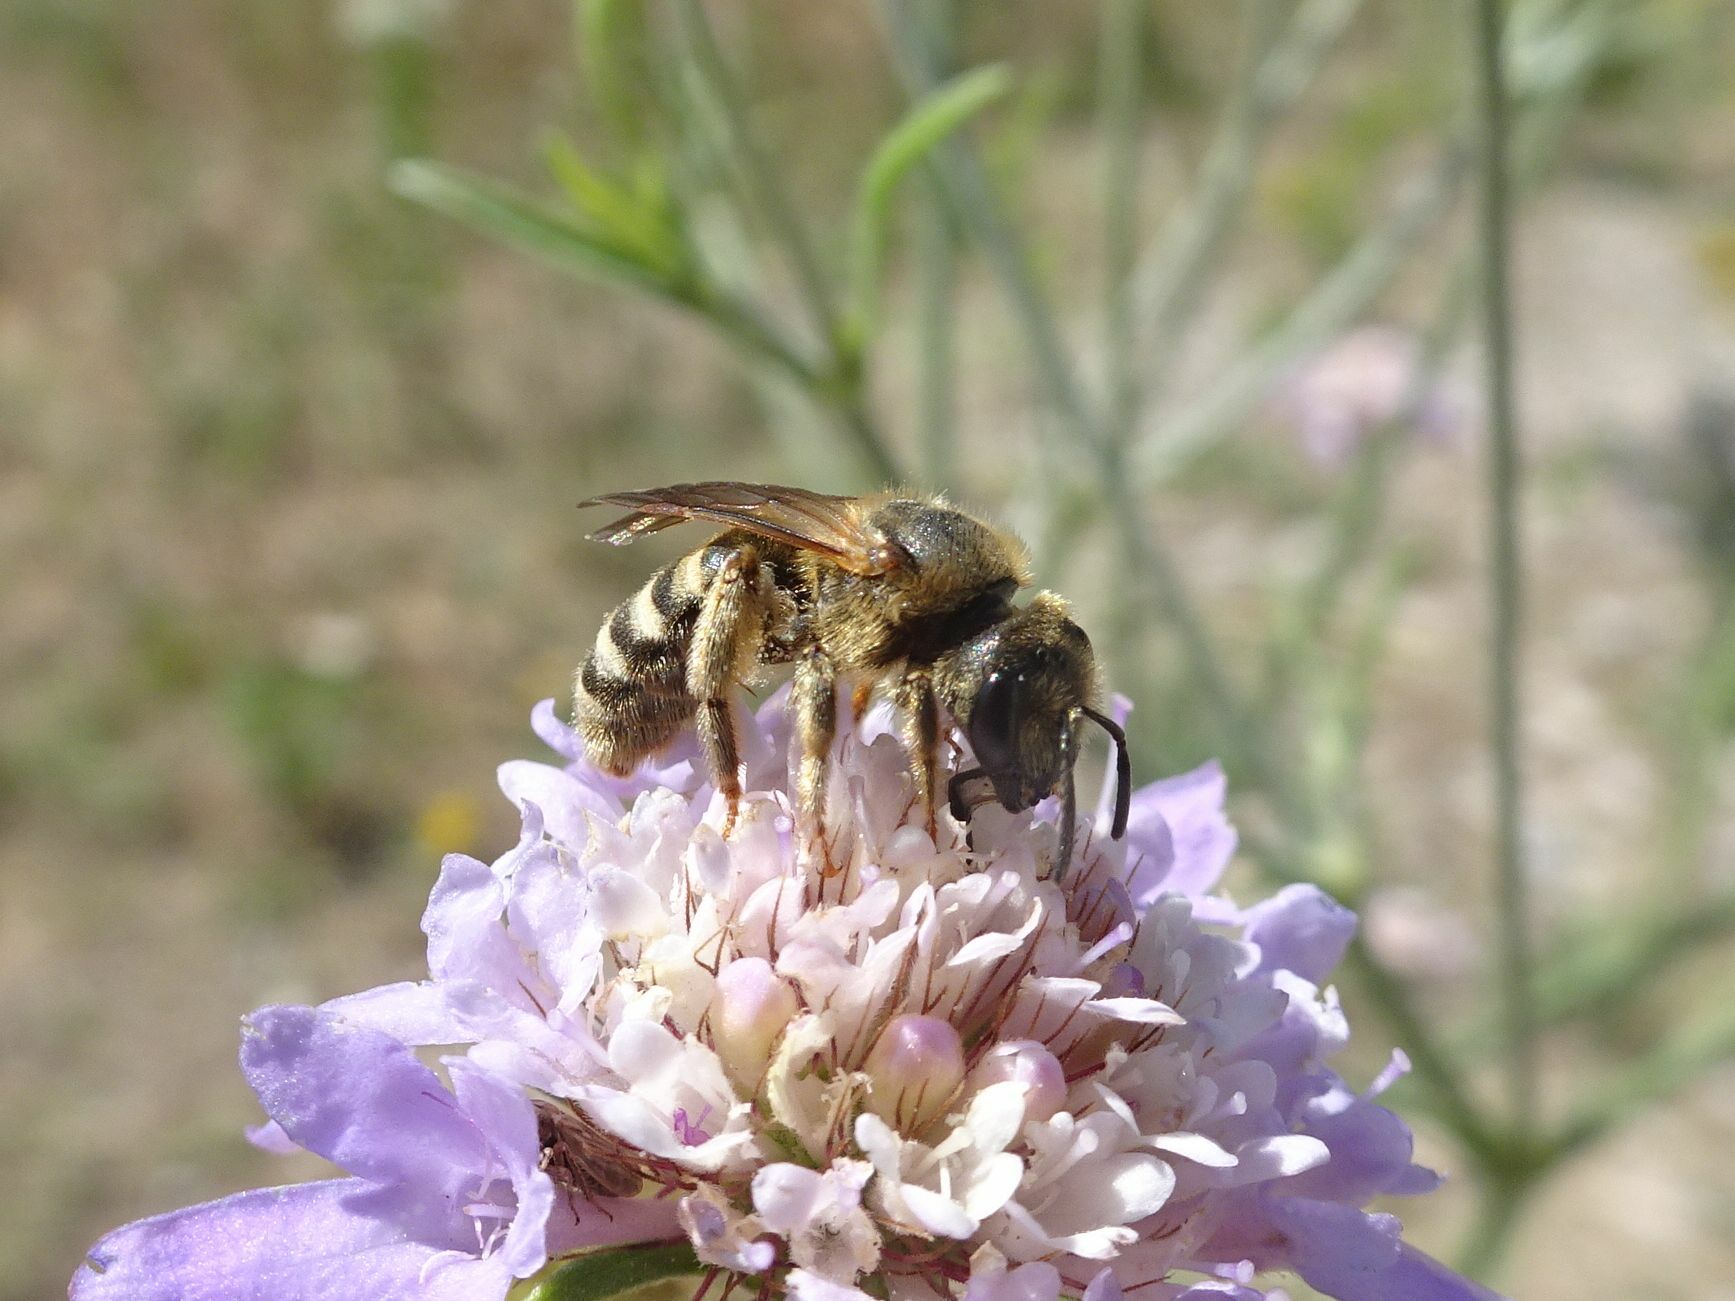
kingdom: Animalia
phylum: Arthropoda
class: Insecta
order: Hymenoptera
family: Halictidae
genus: Halictus
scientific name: Halictus scabiosae
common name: Great banded furrow bee
